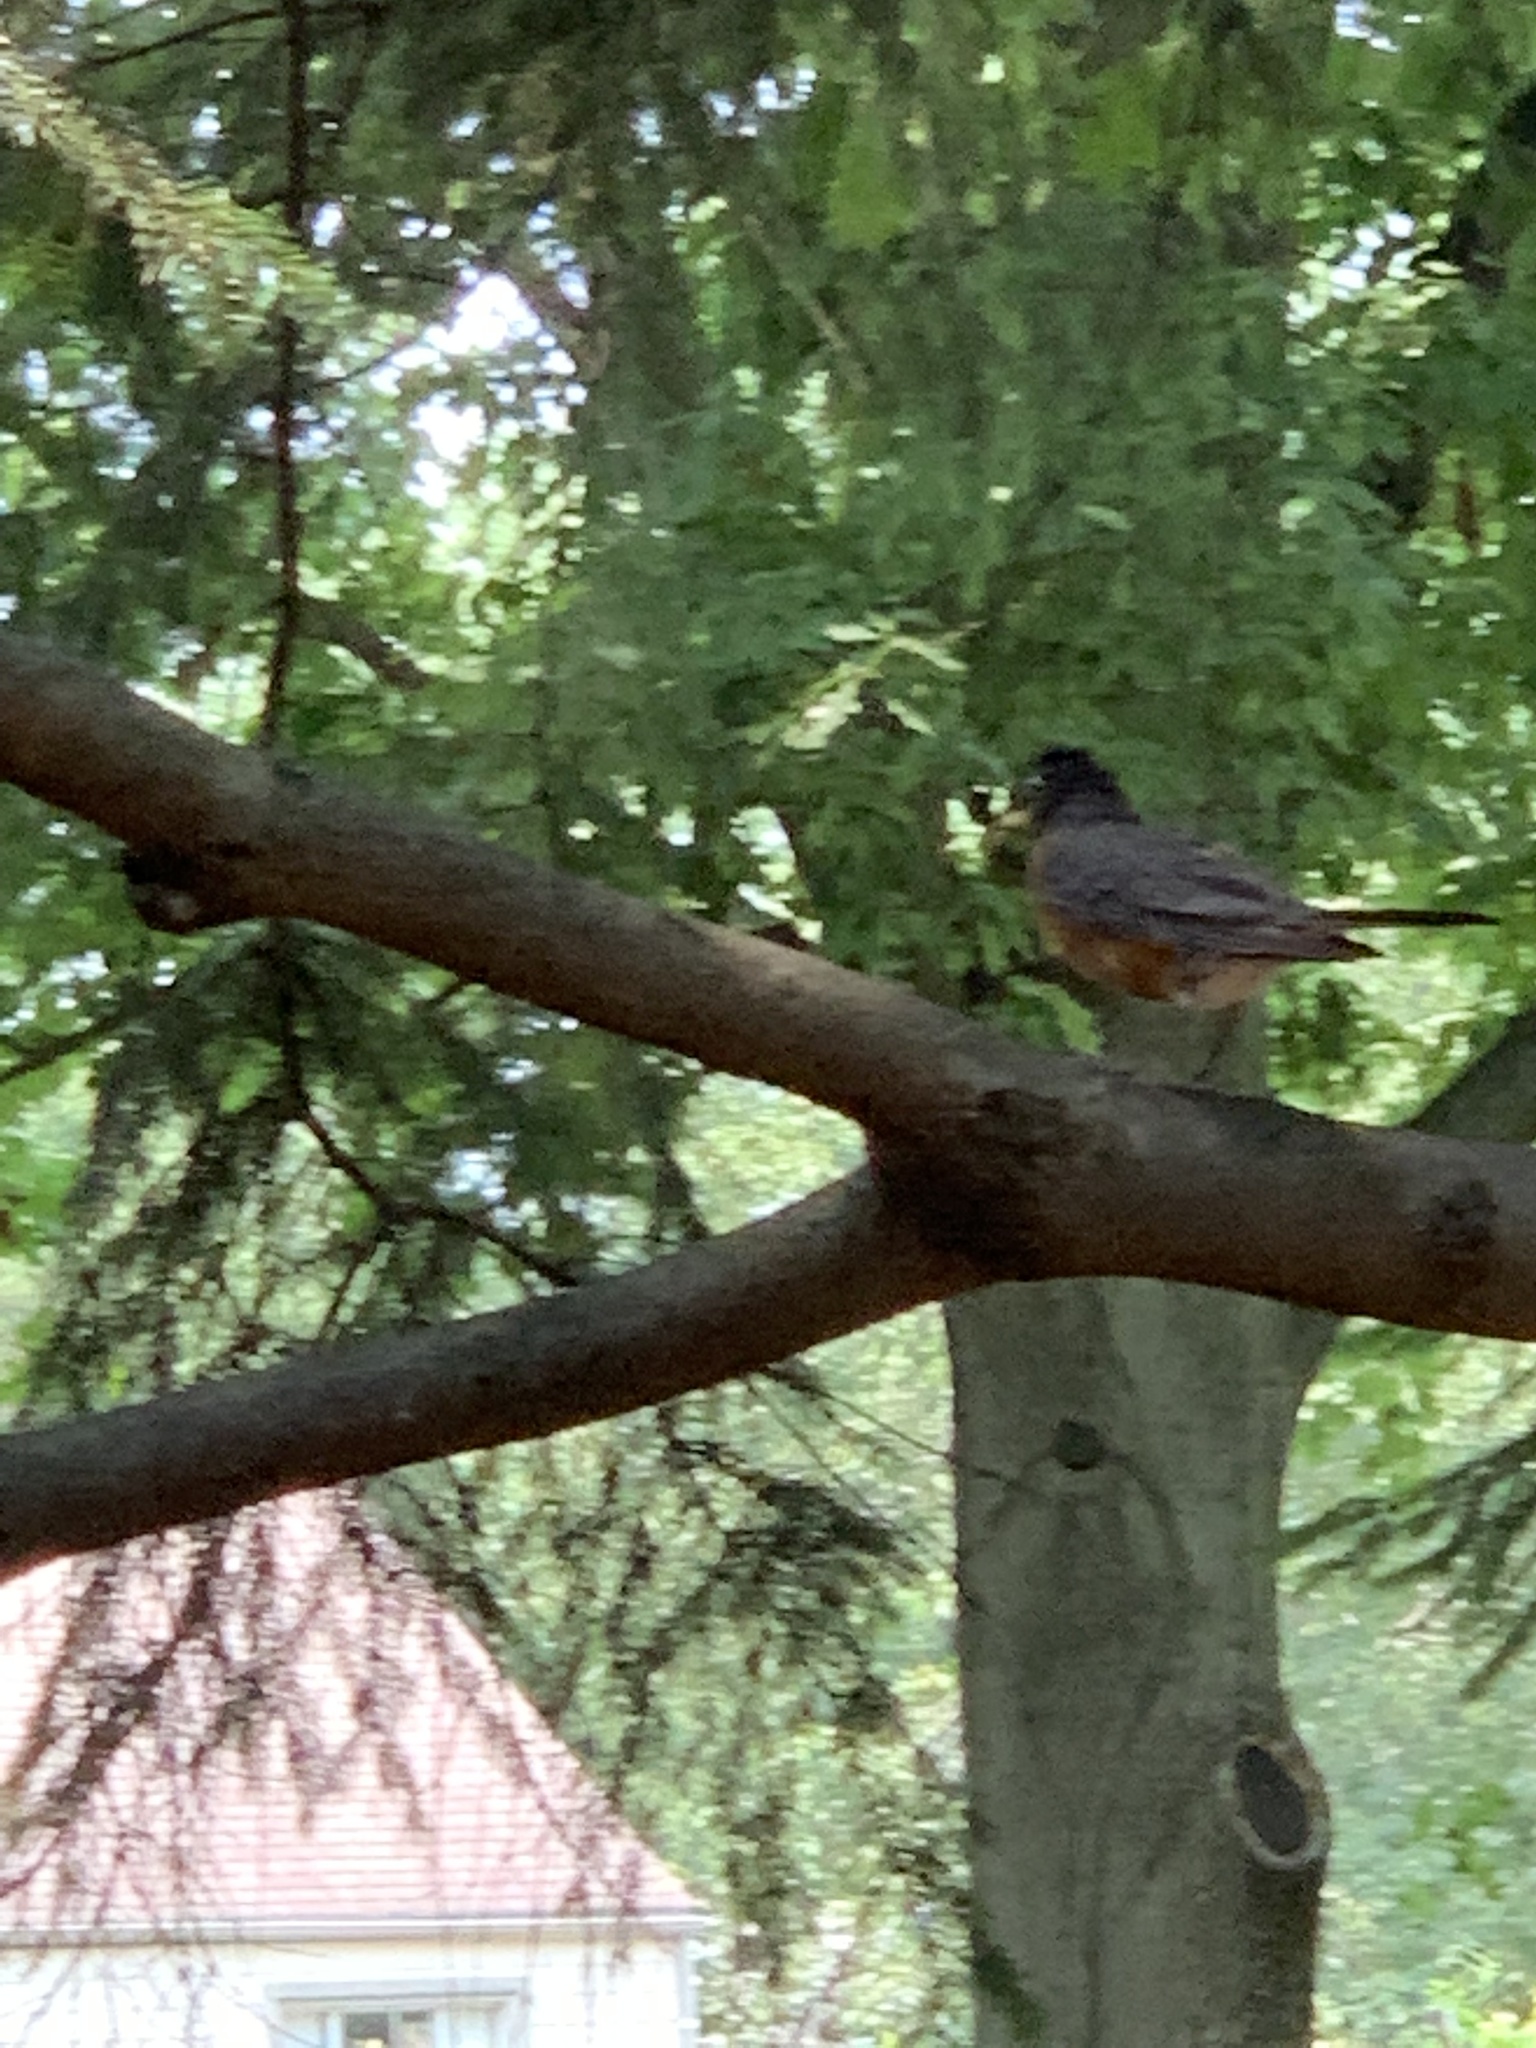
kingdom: Animalia
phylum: Chordata
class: Aves
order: Passeriformes
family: Turdidae
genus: Turdus
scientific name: Turdus migratorius
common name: American robin
